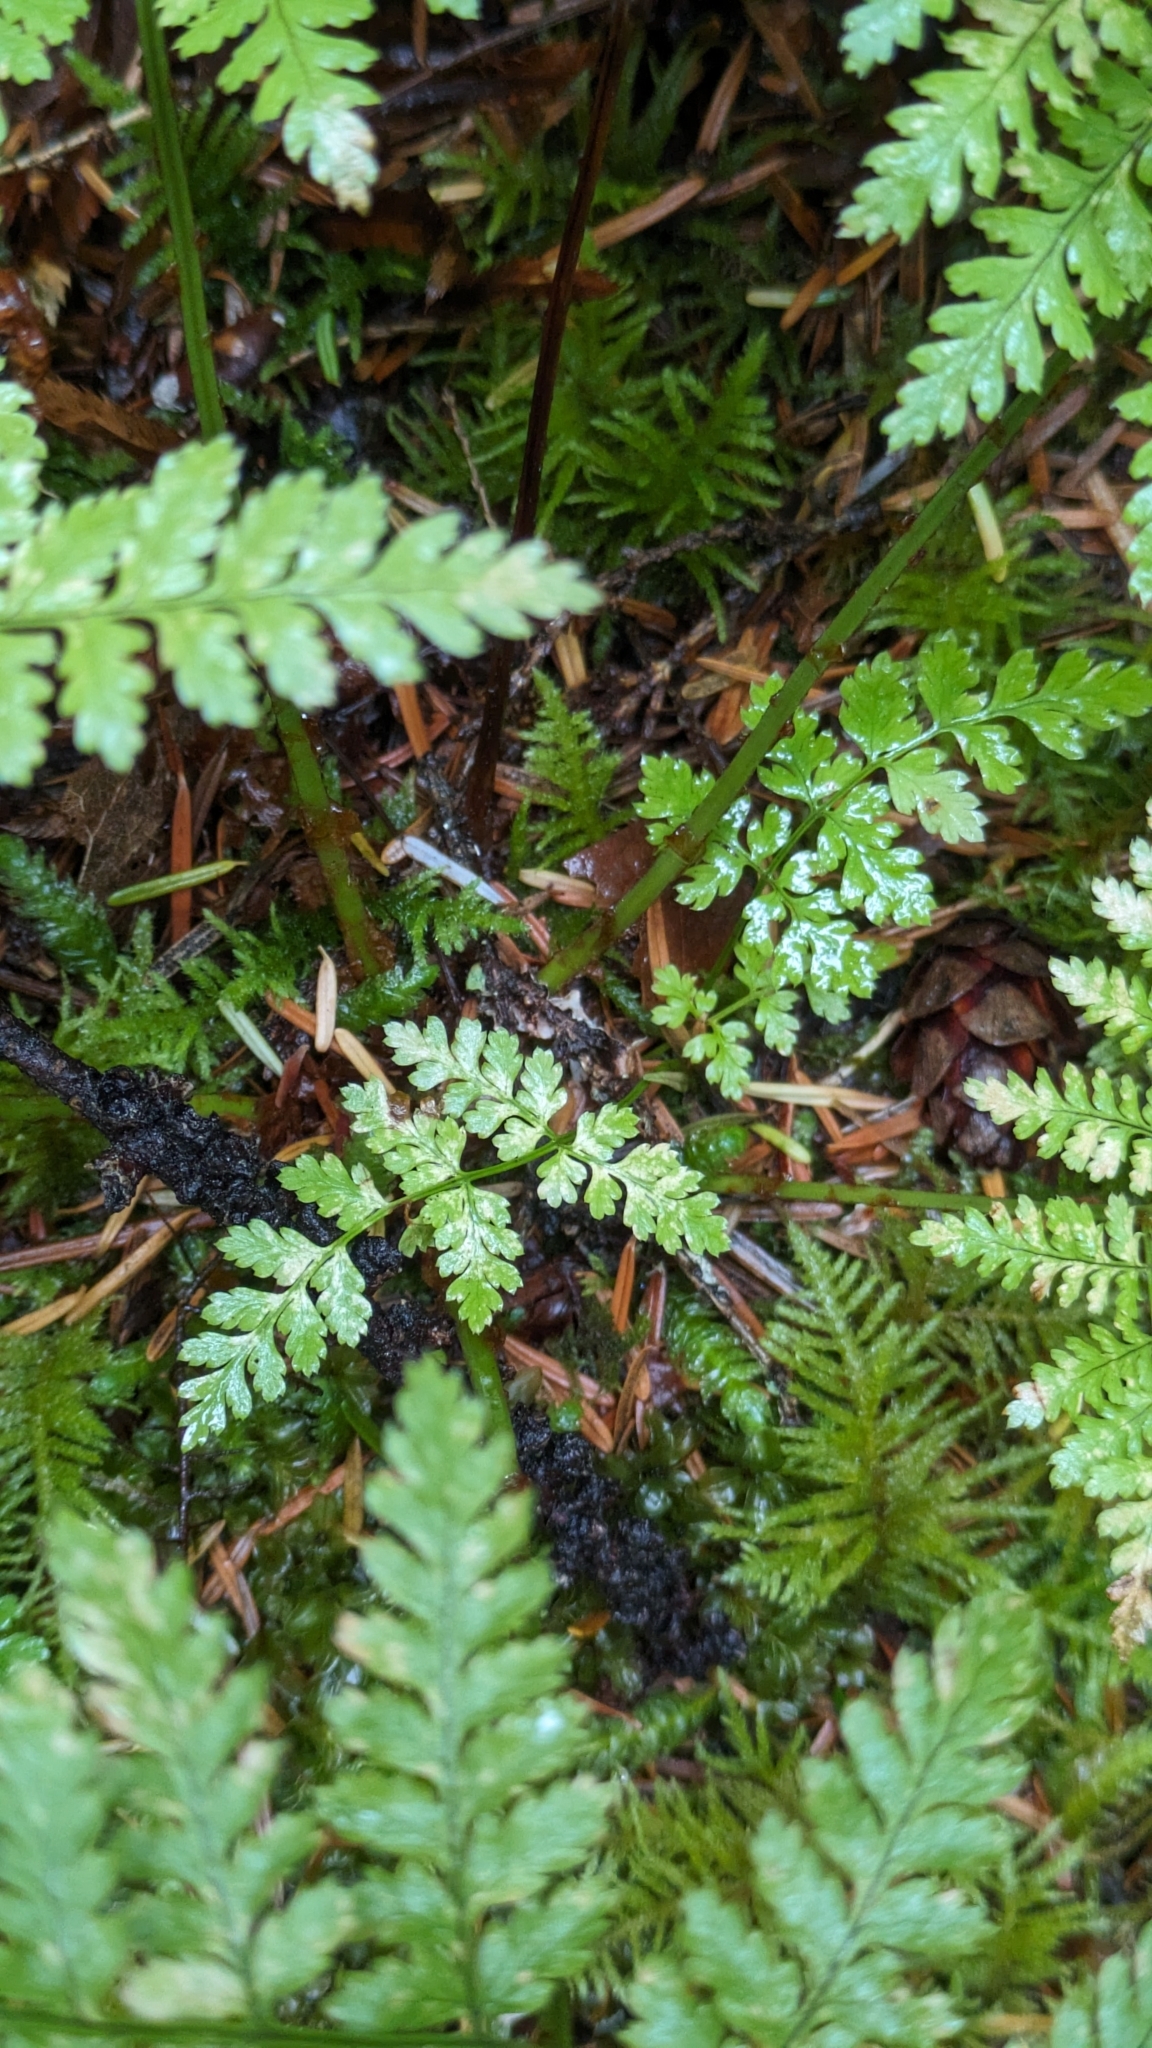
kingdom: Plantae
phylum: Tracheophyta
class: Polypodiopsida
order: Polypodiales
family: Dryopteridaceae
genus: Dryopteris
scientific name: Dryopteris expansa
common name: Northern buckler fern
